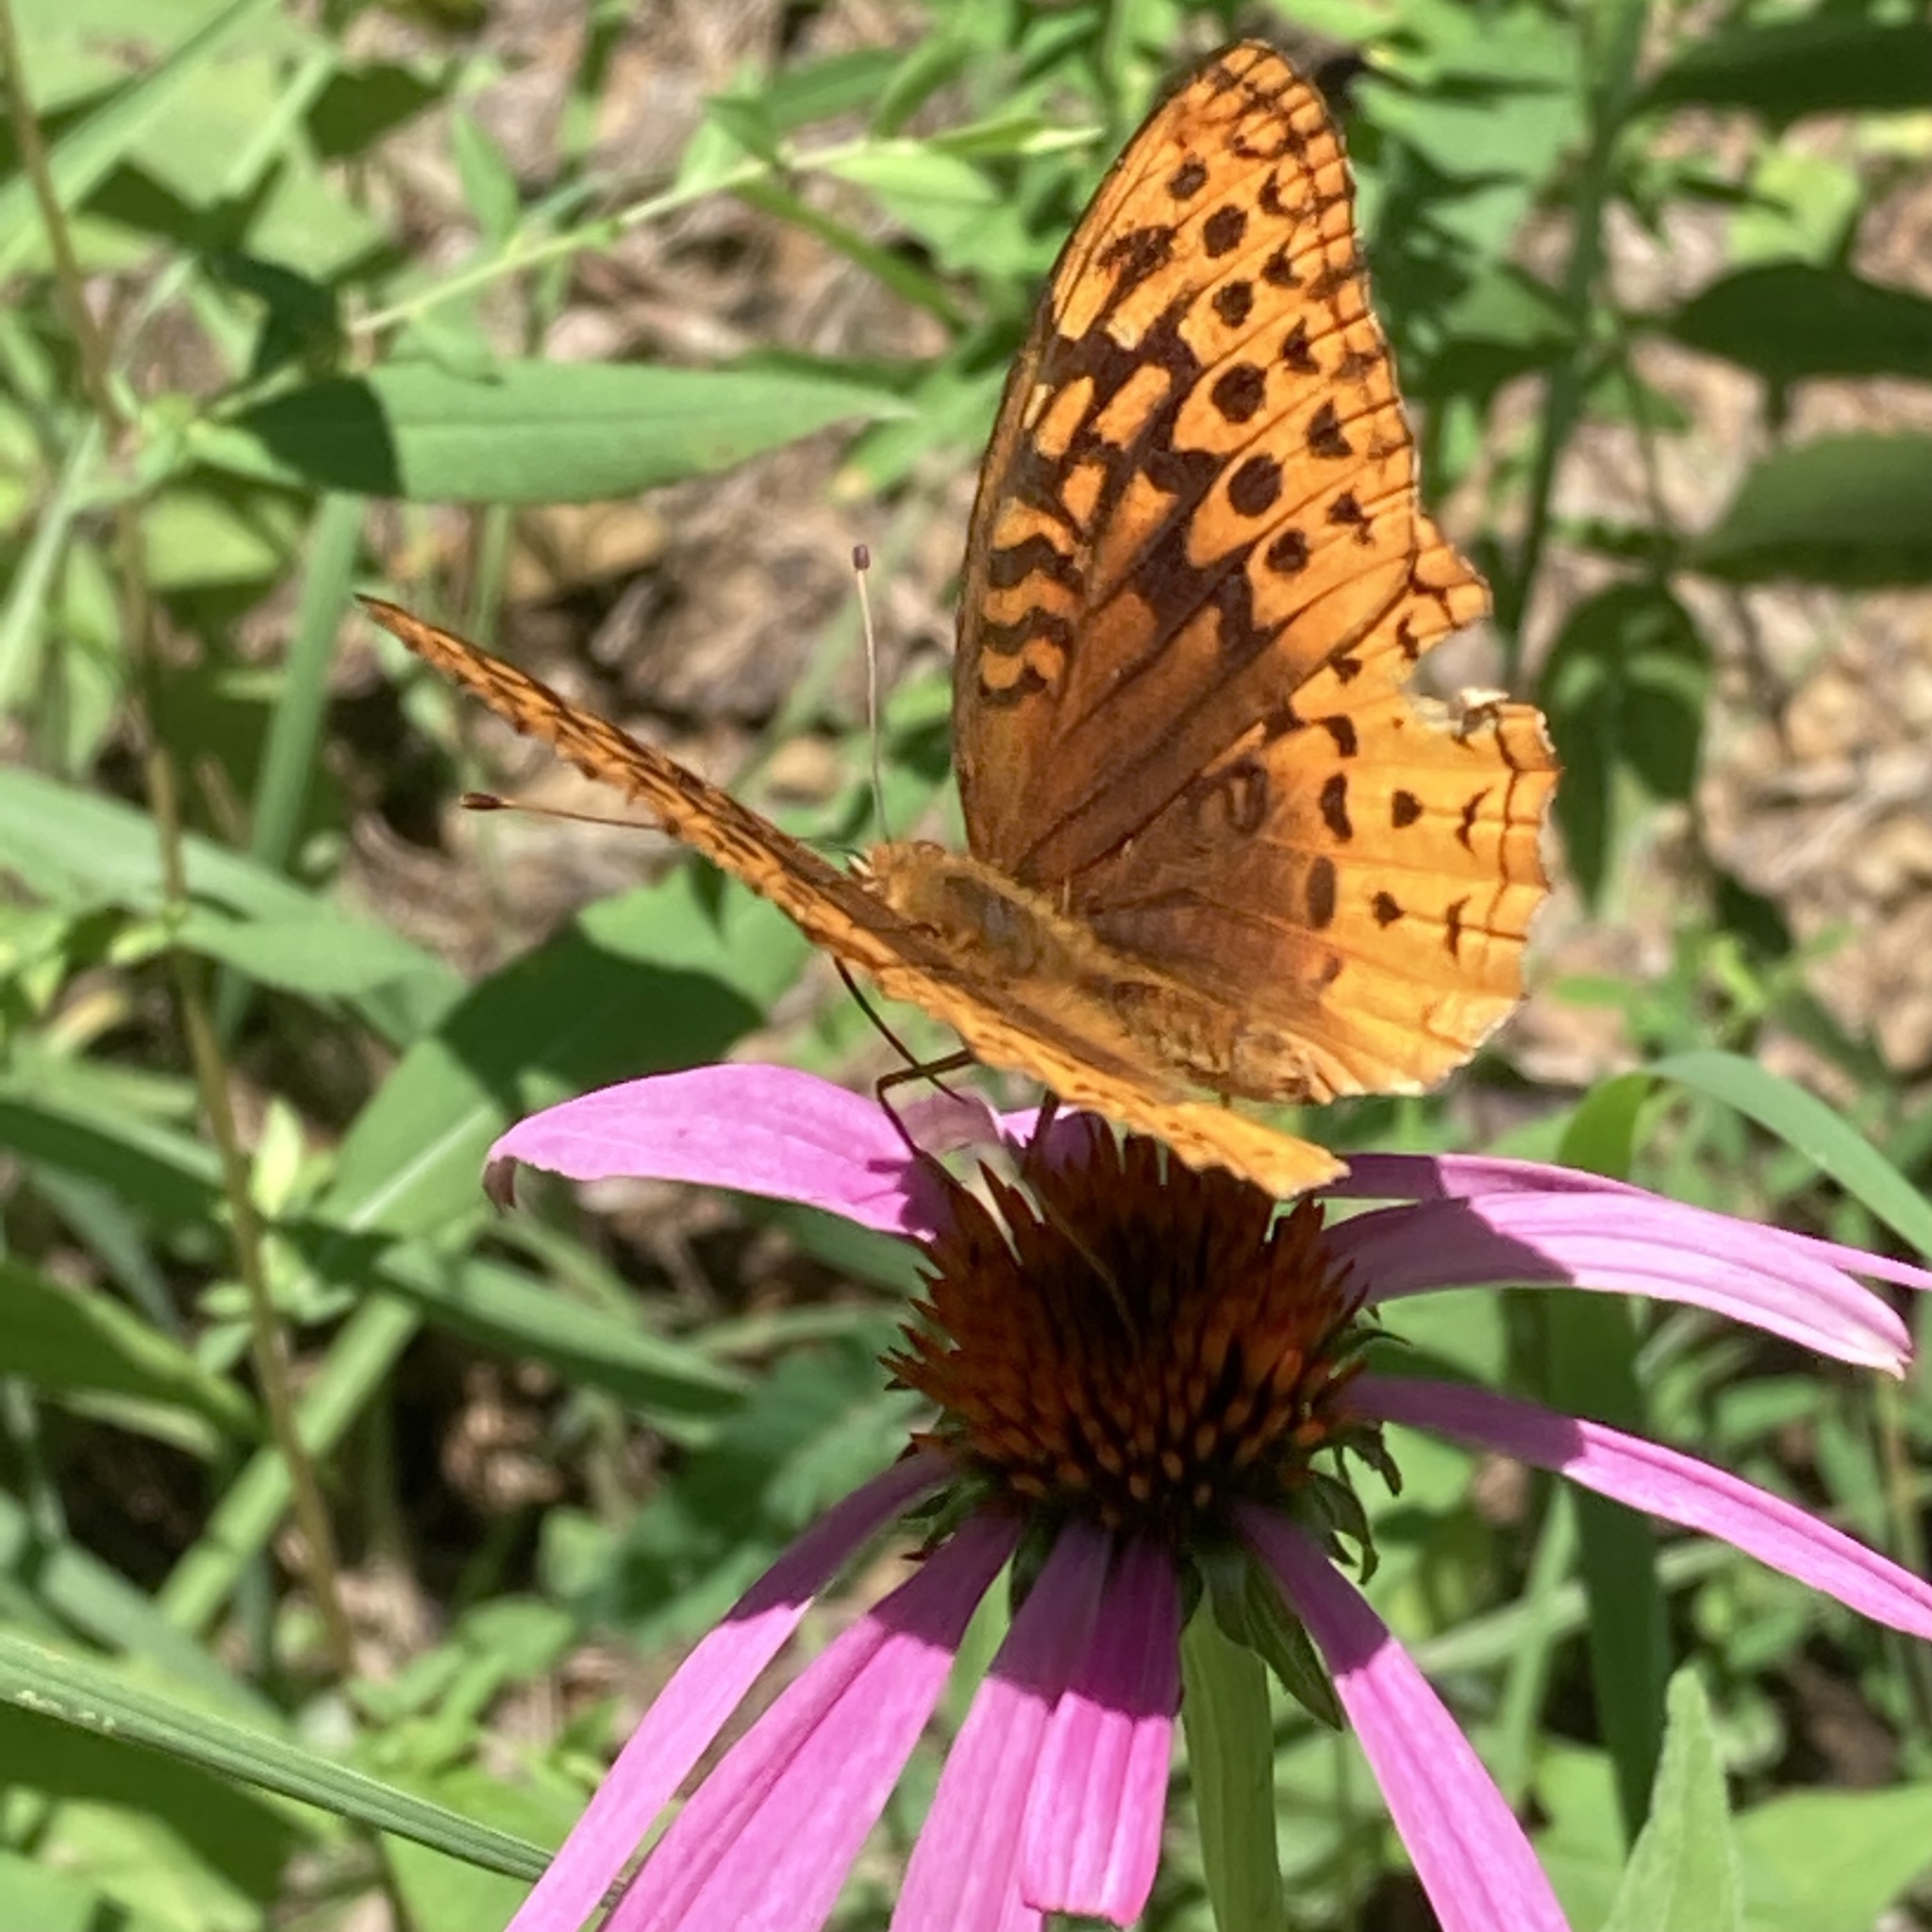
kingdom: Animalia
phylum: Arthropoda
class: Insecta
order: Lepidoptera
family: Nymphalidae
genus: Speyeria
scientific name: Speyeria cybele
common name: Great spangled fritillary
